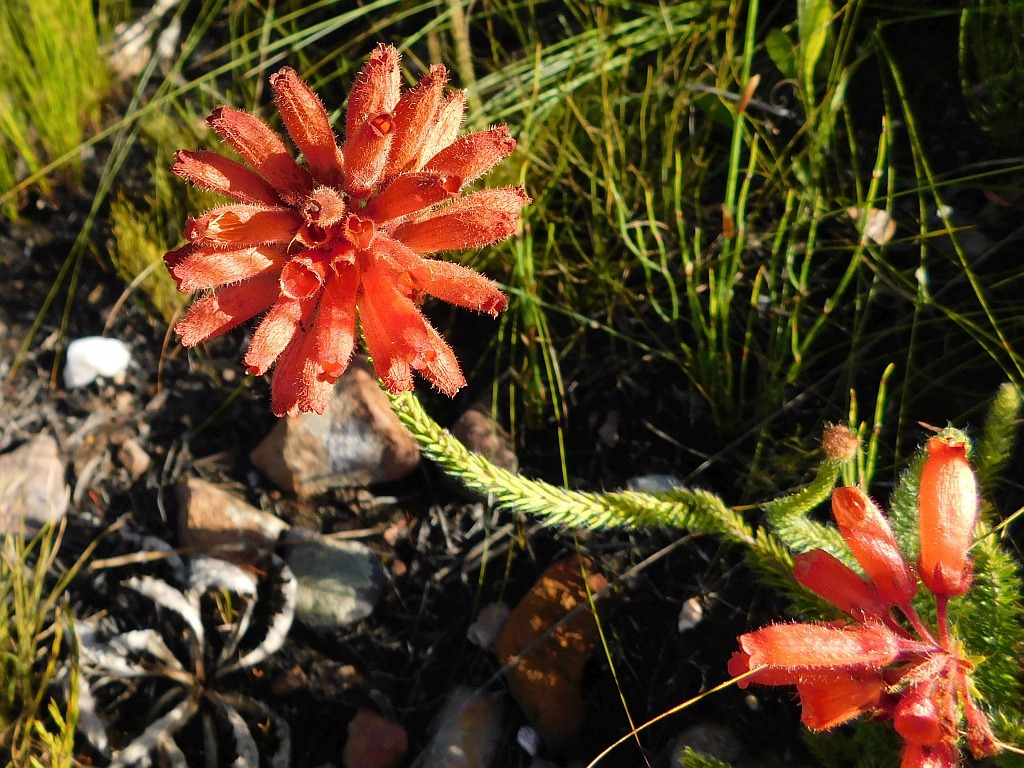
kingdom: Plantae
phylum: Tracheophyta
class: Magnoliopsida
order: Ericales
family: Ericaceae
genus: Erica
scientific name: Erica cerinthoides
